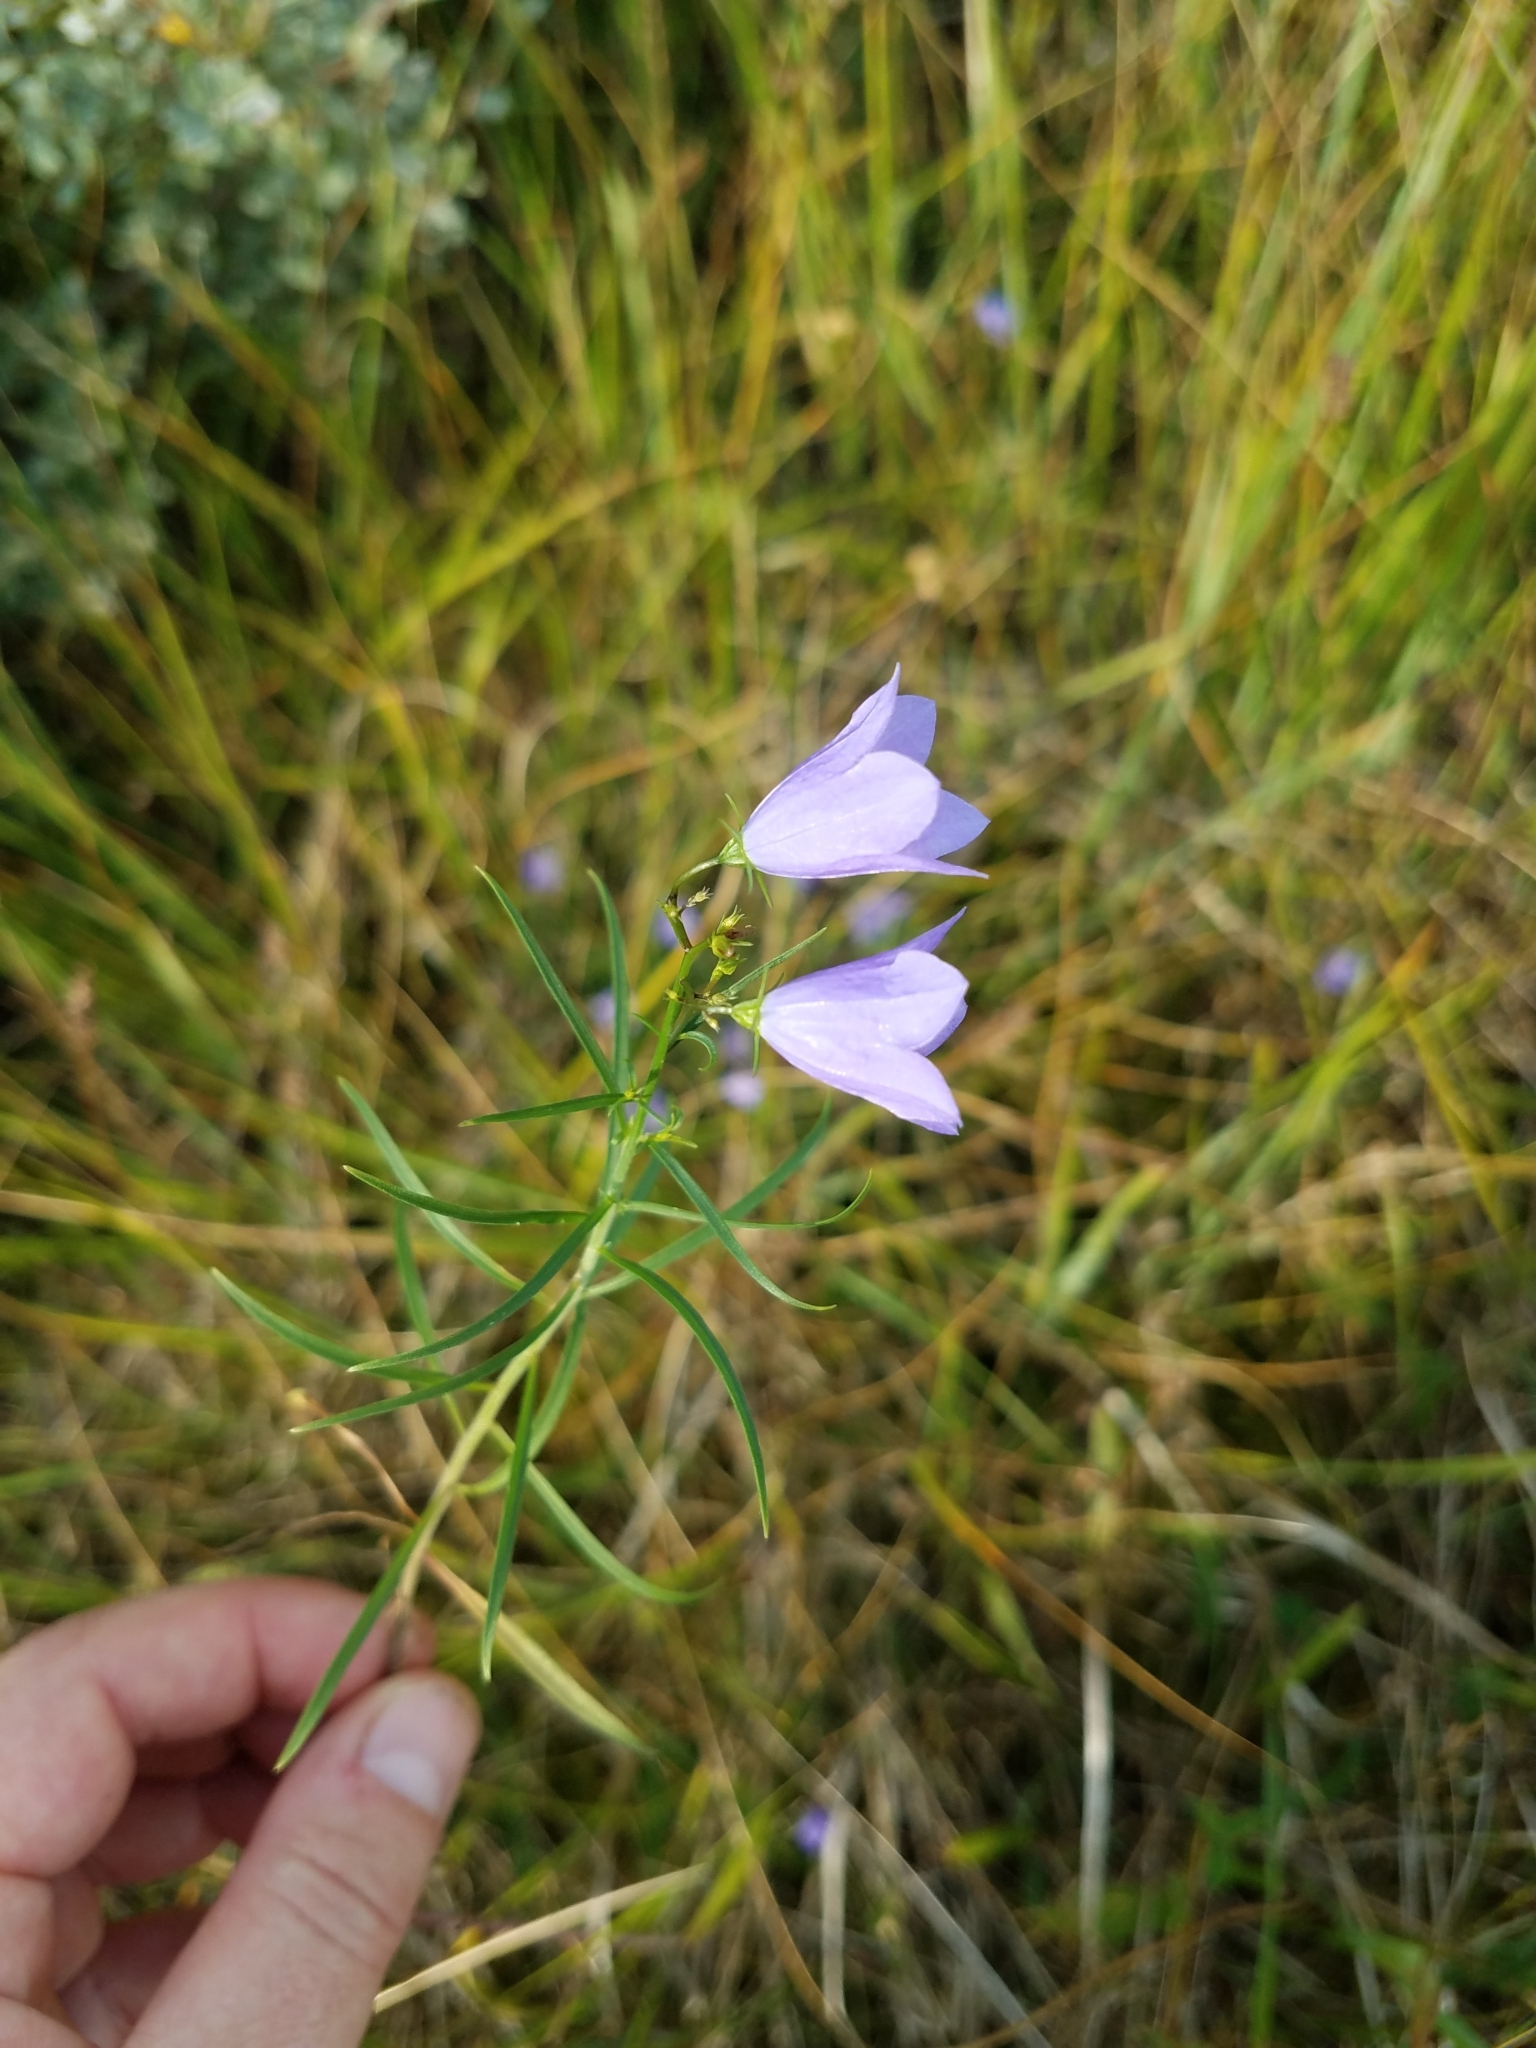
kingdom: Plantae
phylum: Tracheophyta
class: Magnoliopsida
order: Asterales
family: Campanulaceae
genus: Campanula
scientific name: Campanula rotundifolia
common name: Harebell
